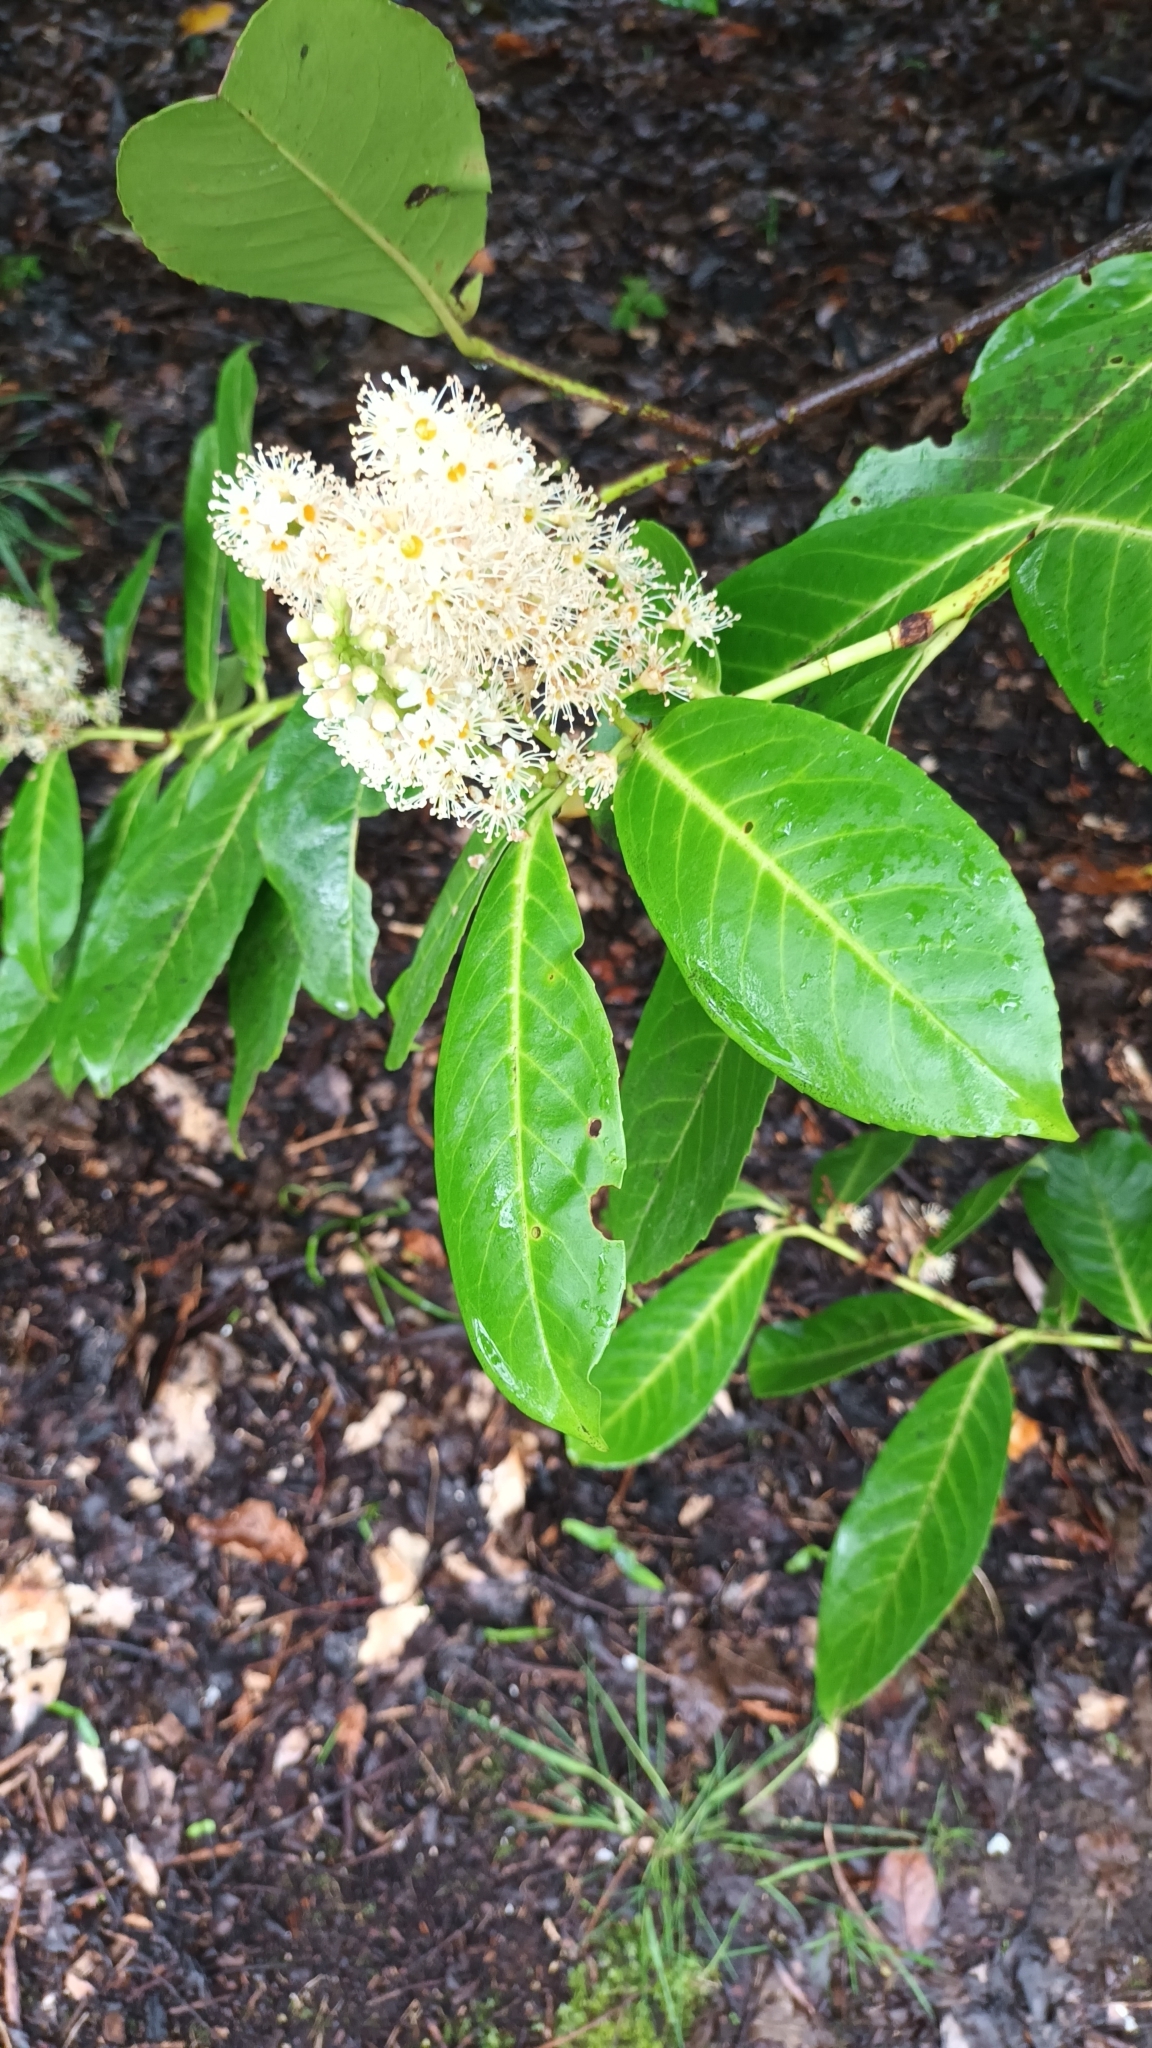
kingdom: Plantae
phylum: Tracheophyta
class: Magnoliopsida
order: Rosales
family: Rosaceae
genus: Prunus
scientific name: Prunus laurocerasus
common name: Cherry laurel
